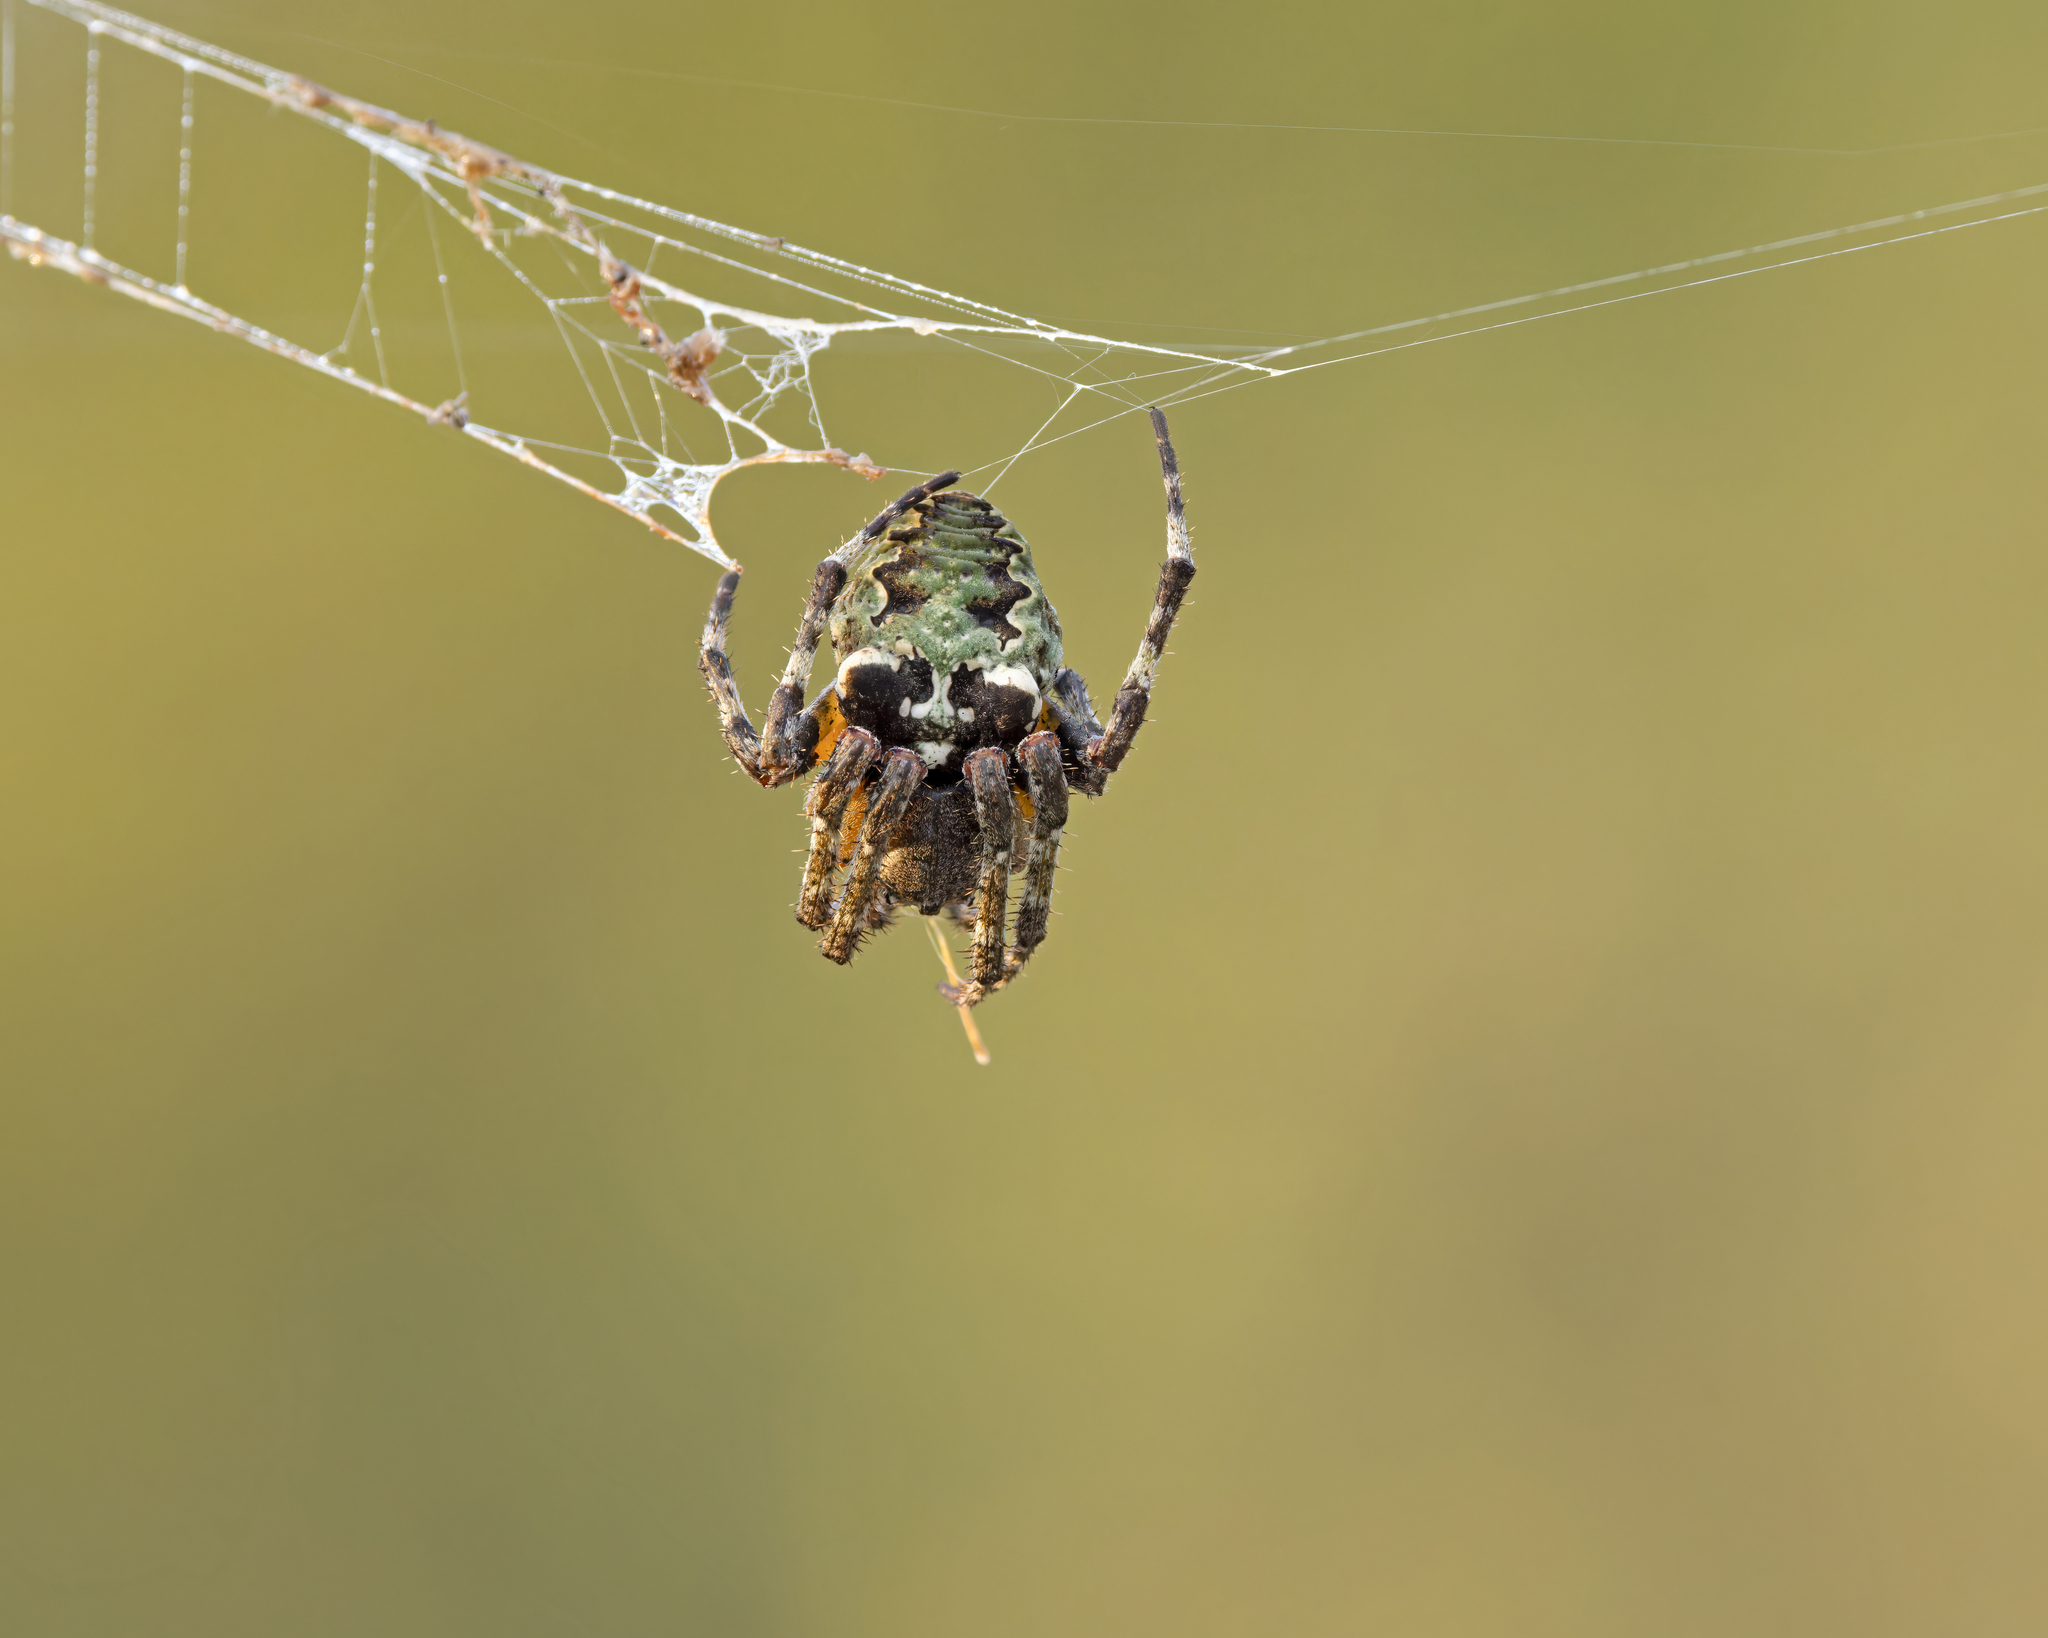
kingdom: Animalia
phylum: Arthropoda
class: Arachnida
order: Araneae
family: Araneidae
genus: Araneus
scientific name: Araneus bicentenarius
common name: Giant lichen orbweaver
